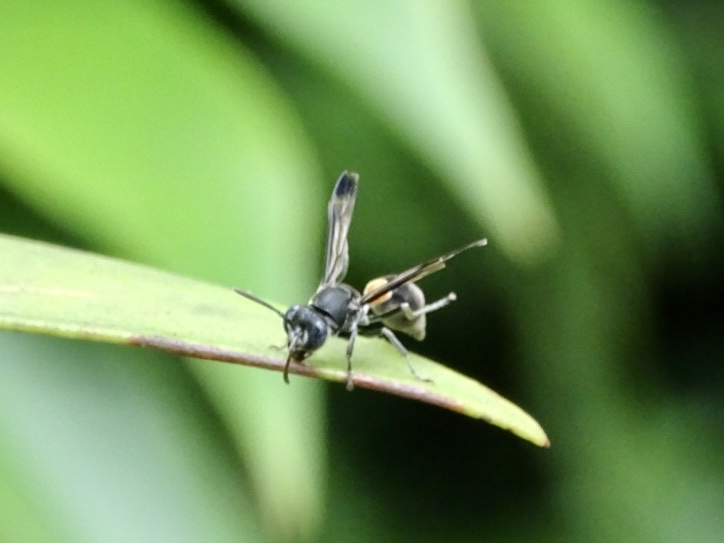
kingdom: Animalia
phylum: Arthropoda
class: Insecta
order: Hymenoptera
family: Vespidae
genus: Ropalidia
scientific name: Ropalidia sumatrae
